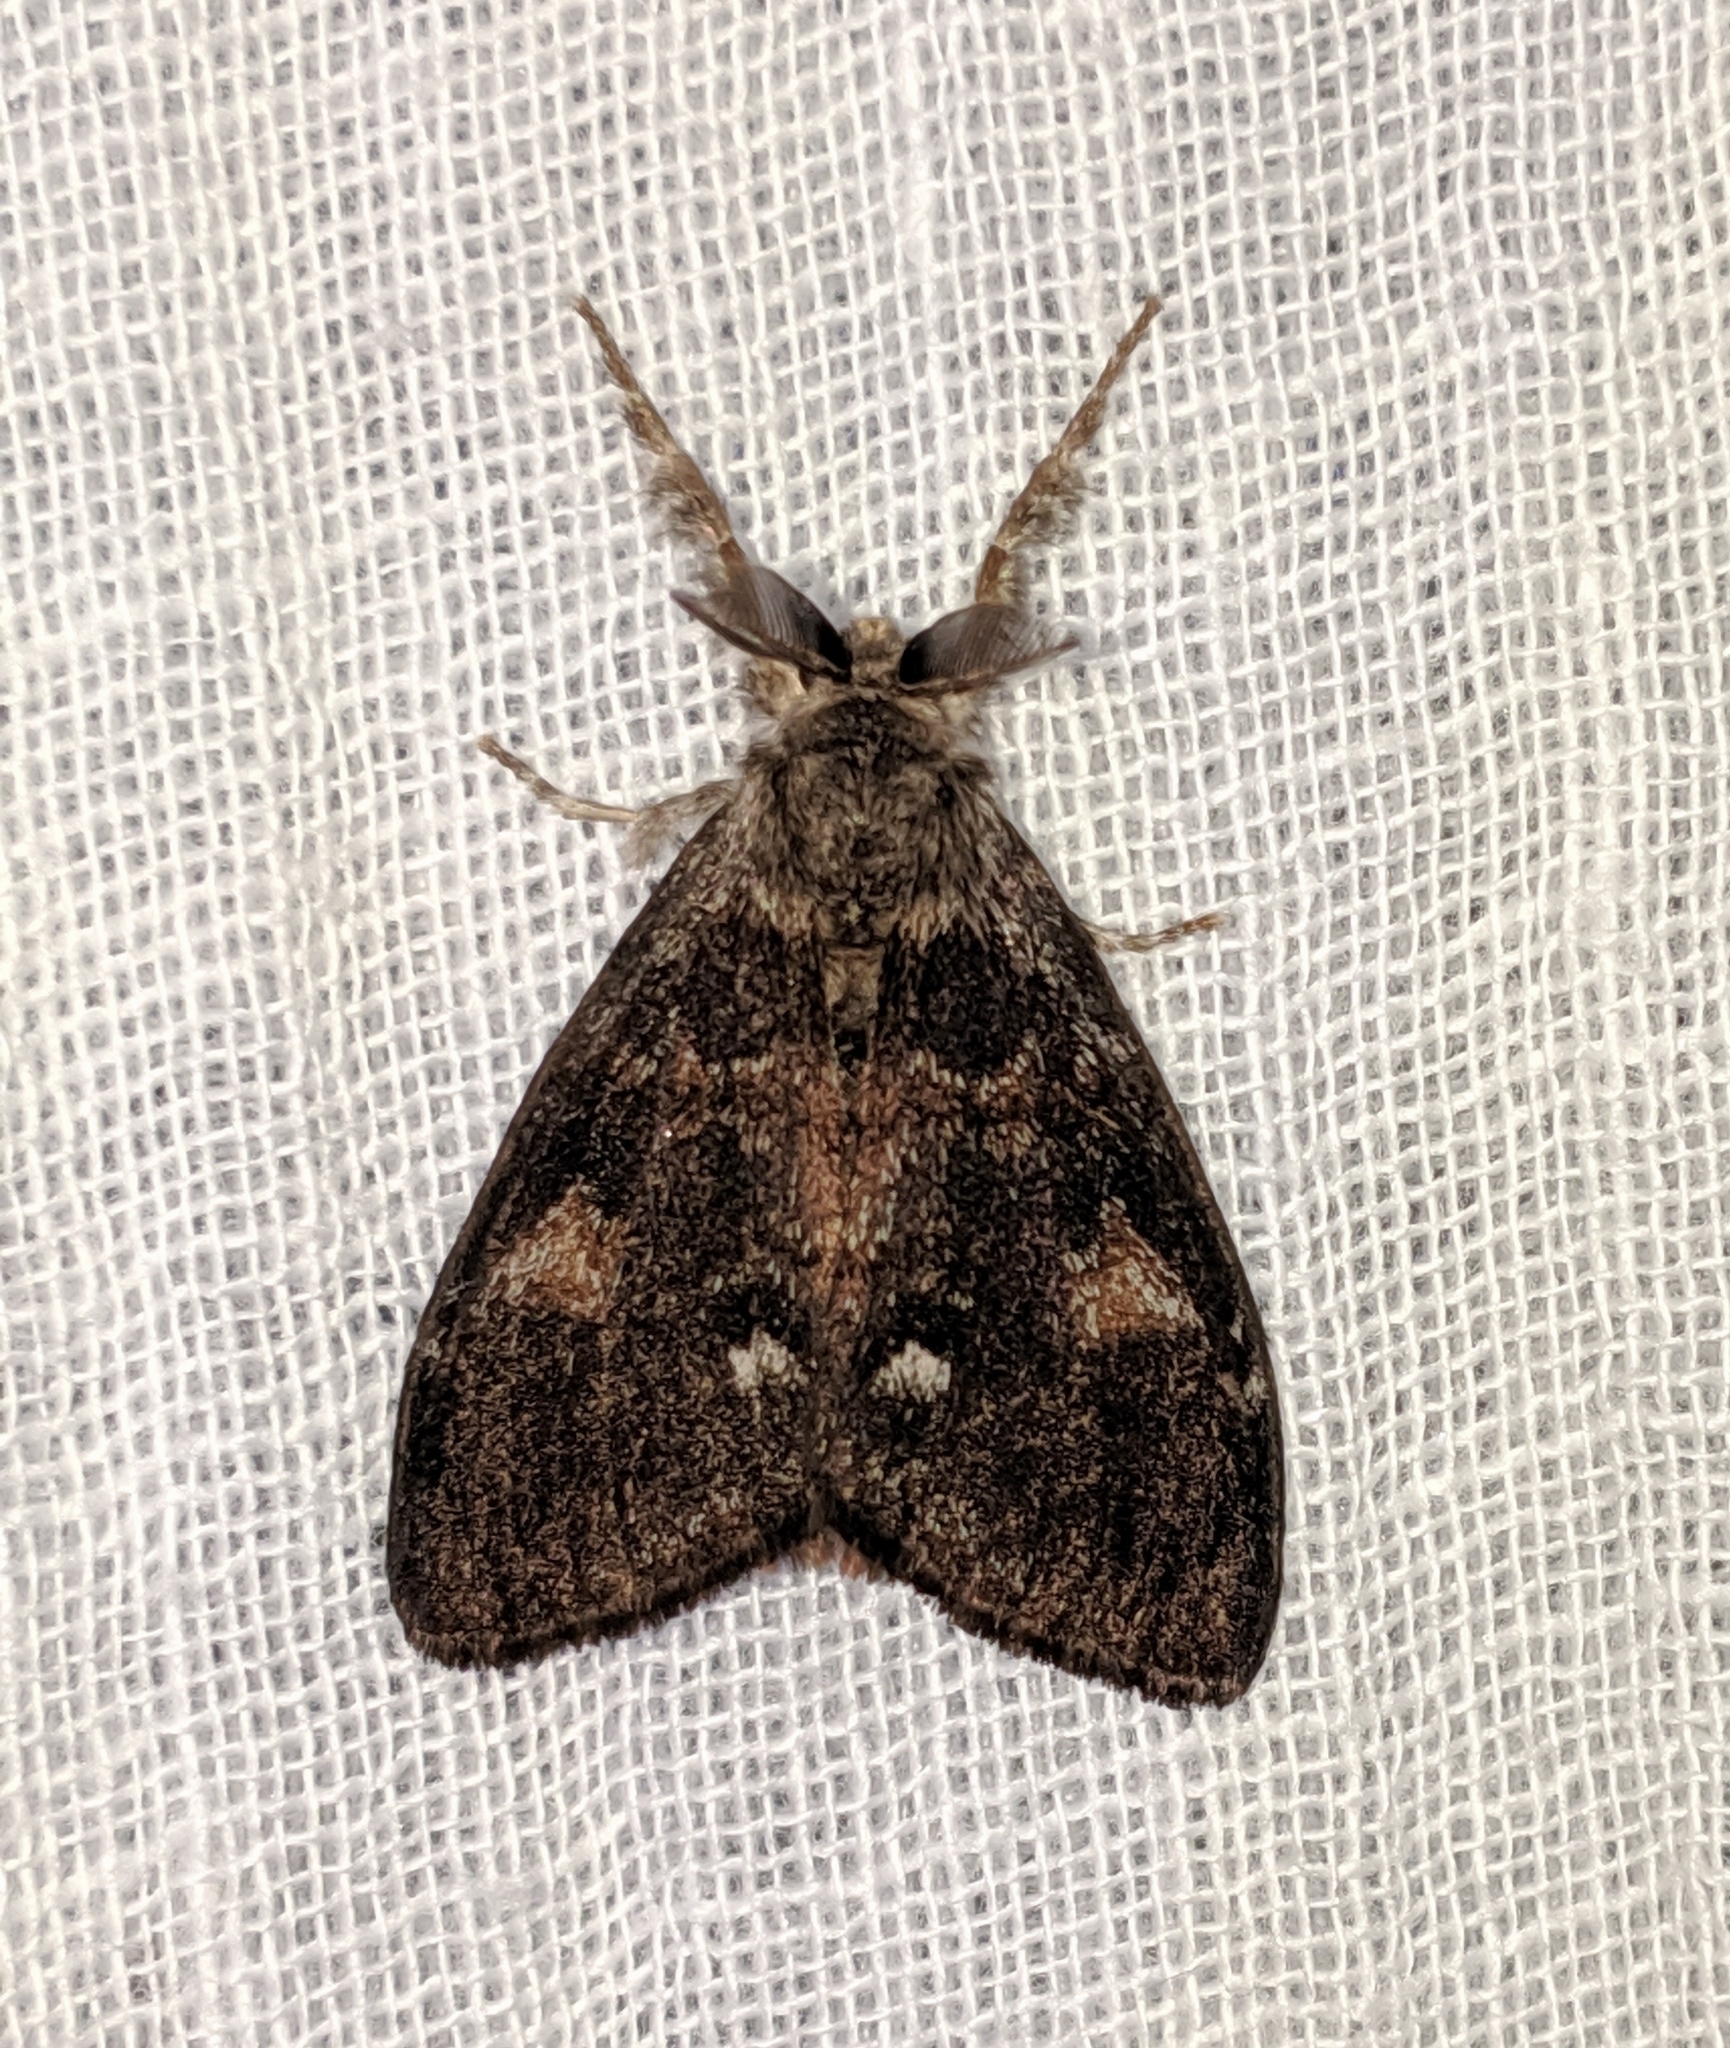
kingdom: Animalia
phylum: Arthropoda
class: Insecta
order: Lepidoptera
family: Erebidae
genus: Orgyia
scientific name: Orgyia pseudotsugata
